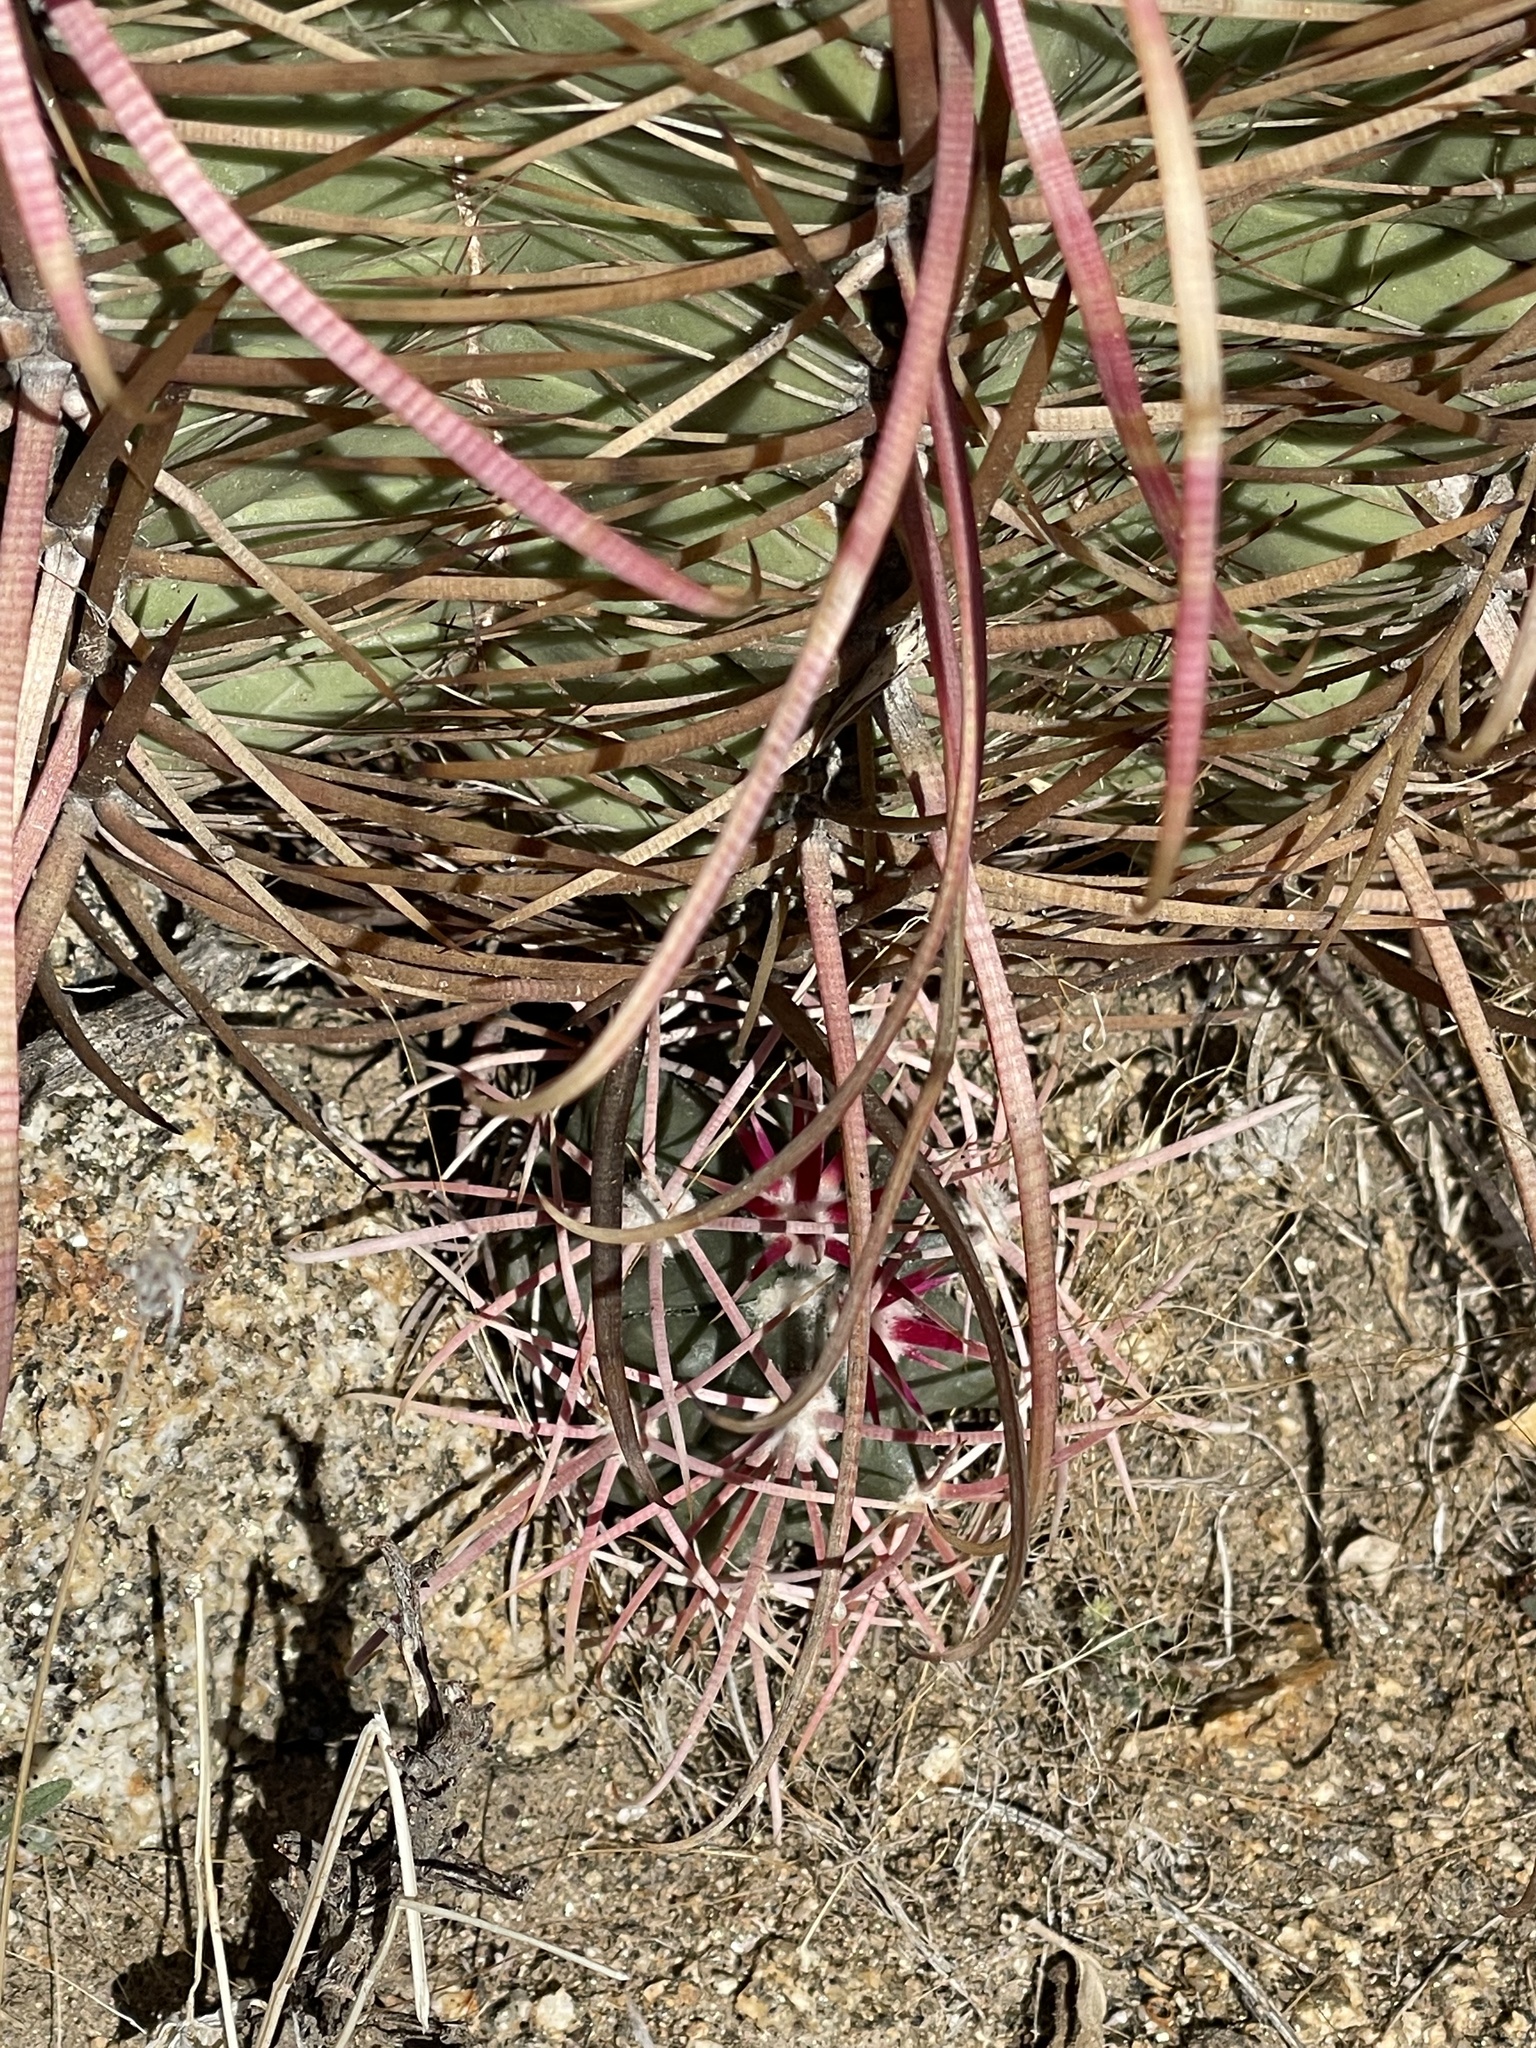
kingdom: Plantae
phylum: Tracheophyta
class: Magnoliopsida
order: Caryophyllales
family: Cactaceae
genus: Ferocactus
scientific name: Ferocactus cylindraceus
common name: California barrel cactus
